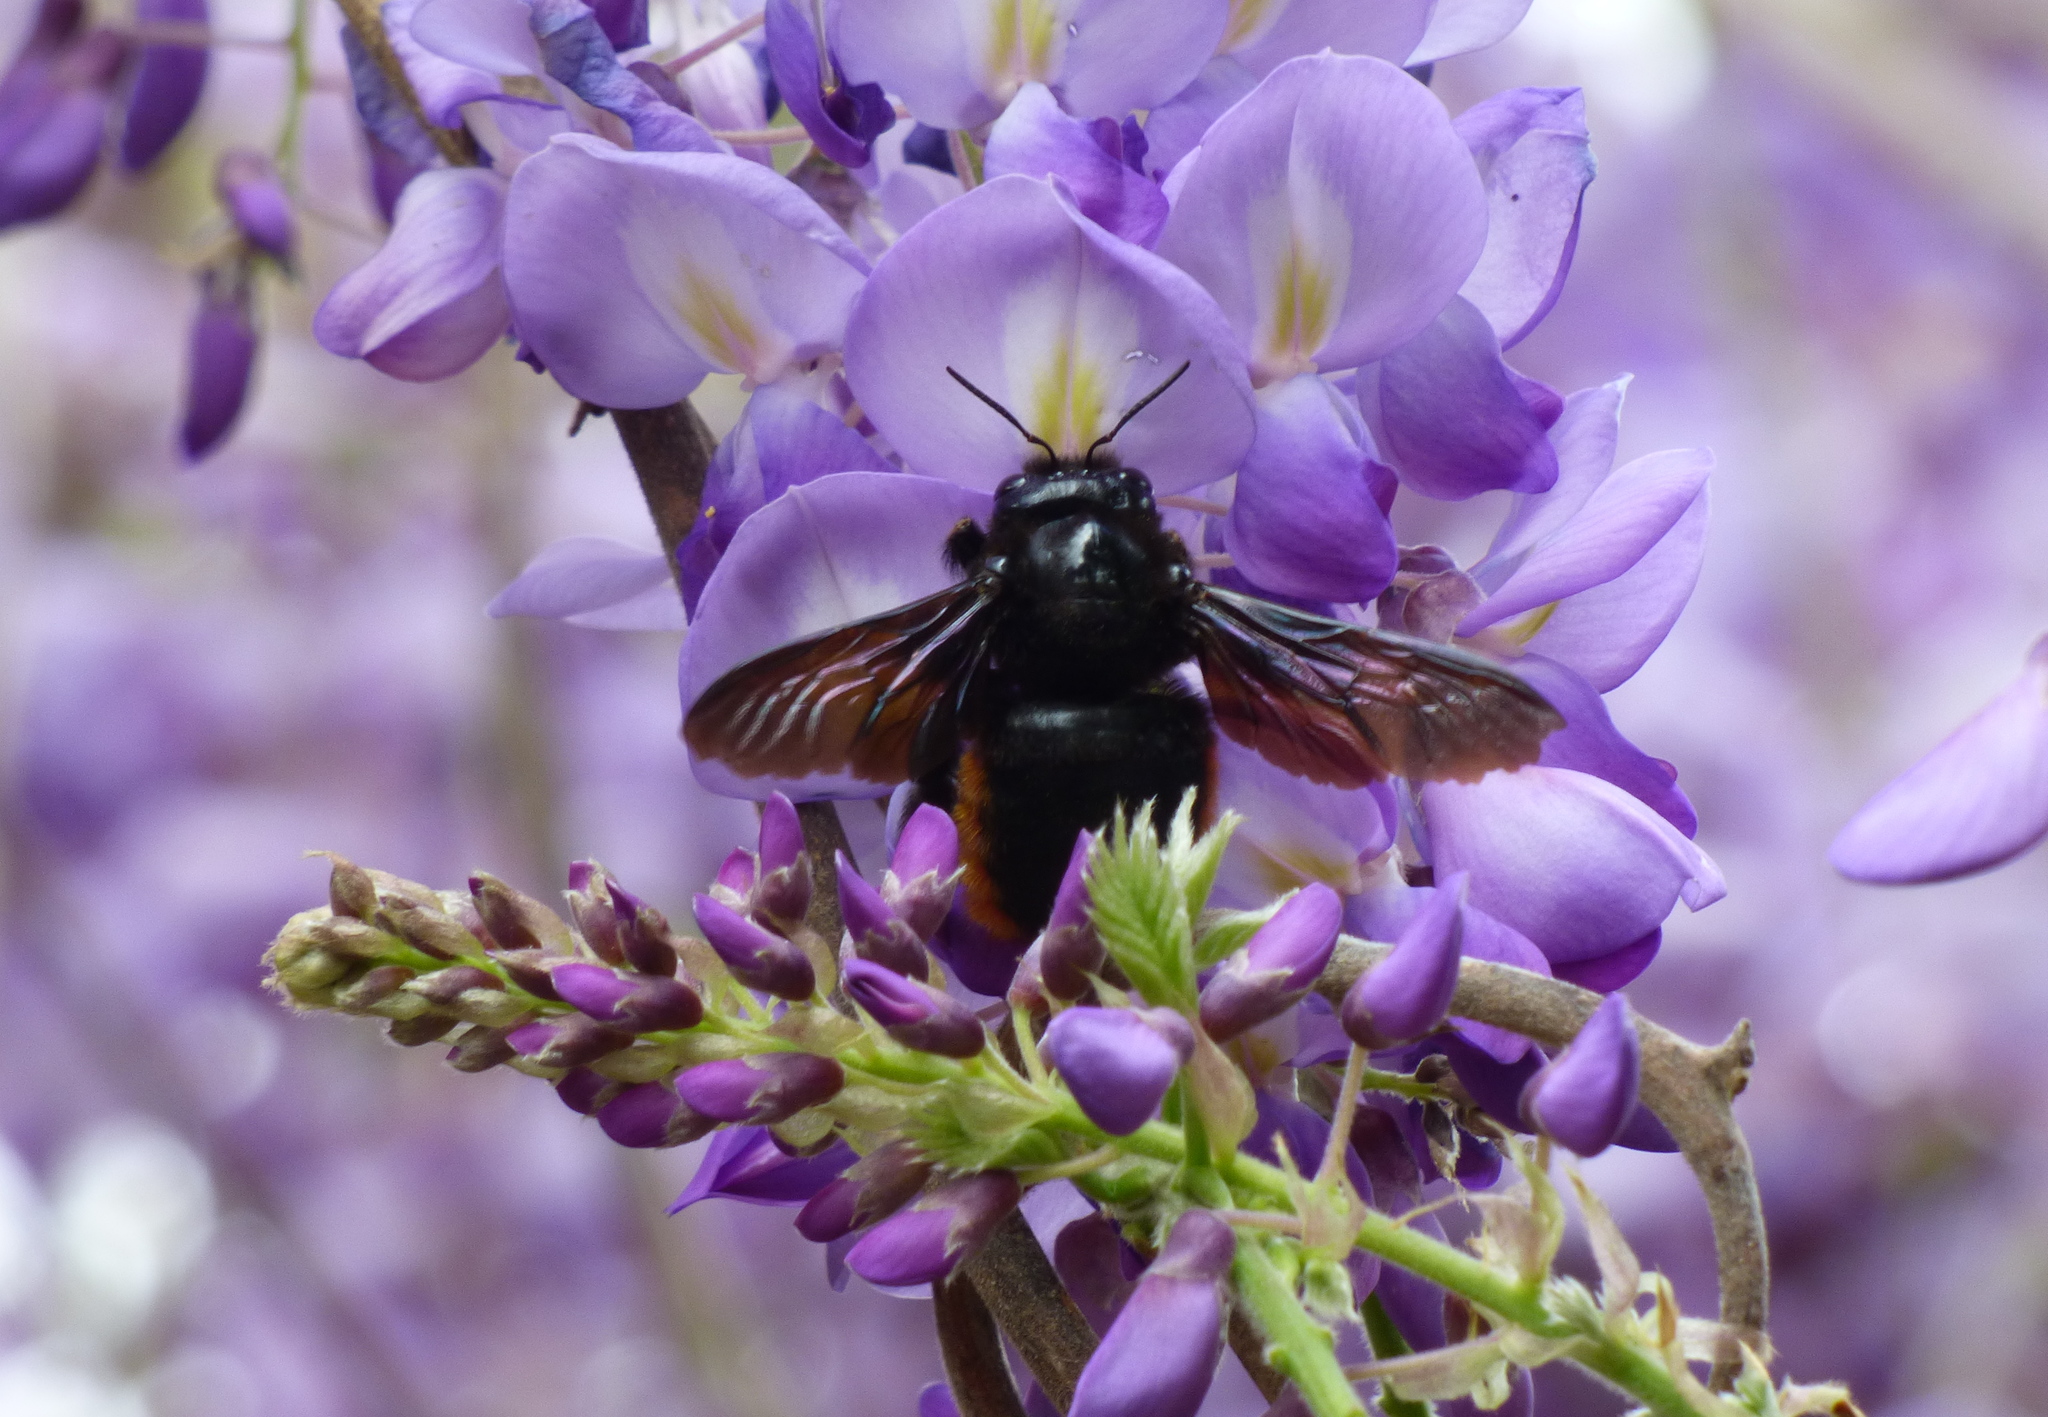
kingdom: Animalia
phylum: Arthropoda
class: Insecta
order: Hymenoptera
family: Apidae
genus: Xylocopa
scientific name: Xylocopa augusti
